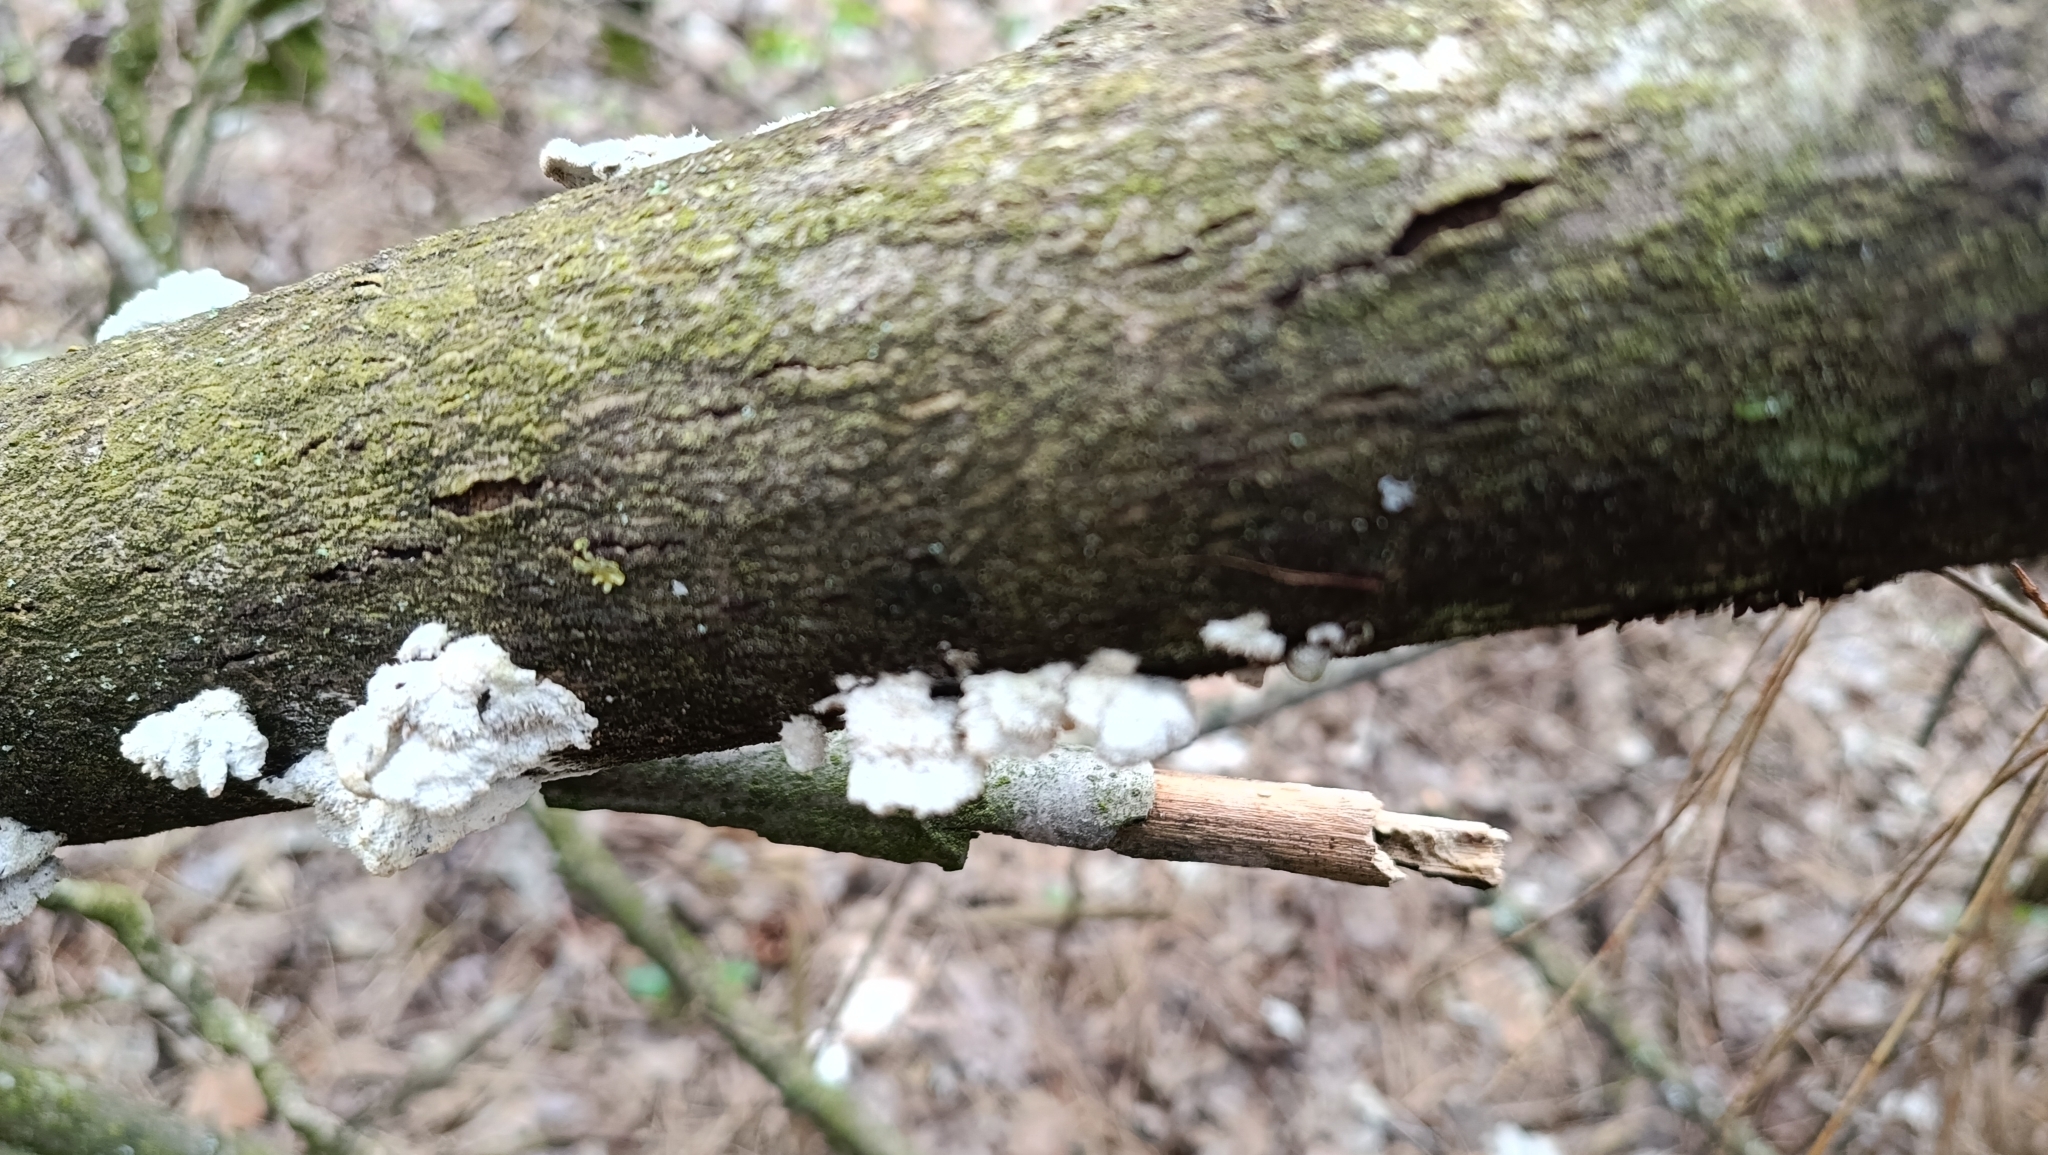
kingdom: Fungi
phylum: Basidiomycota
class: Agaricomycetes
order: Agaricales
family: Schizophyllaceae
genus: Schizophyllum
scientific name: Schizophyllum commune
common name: Common porecrust
